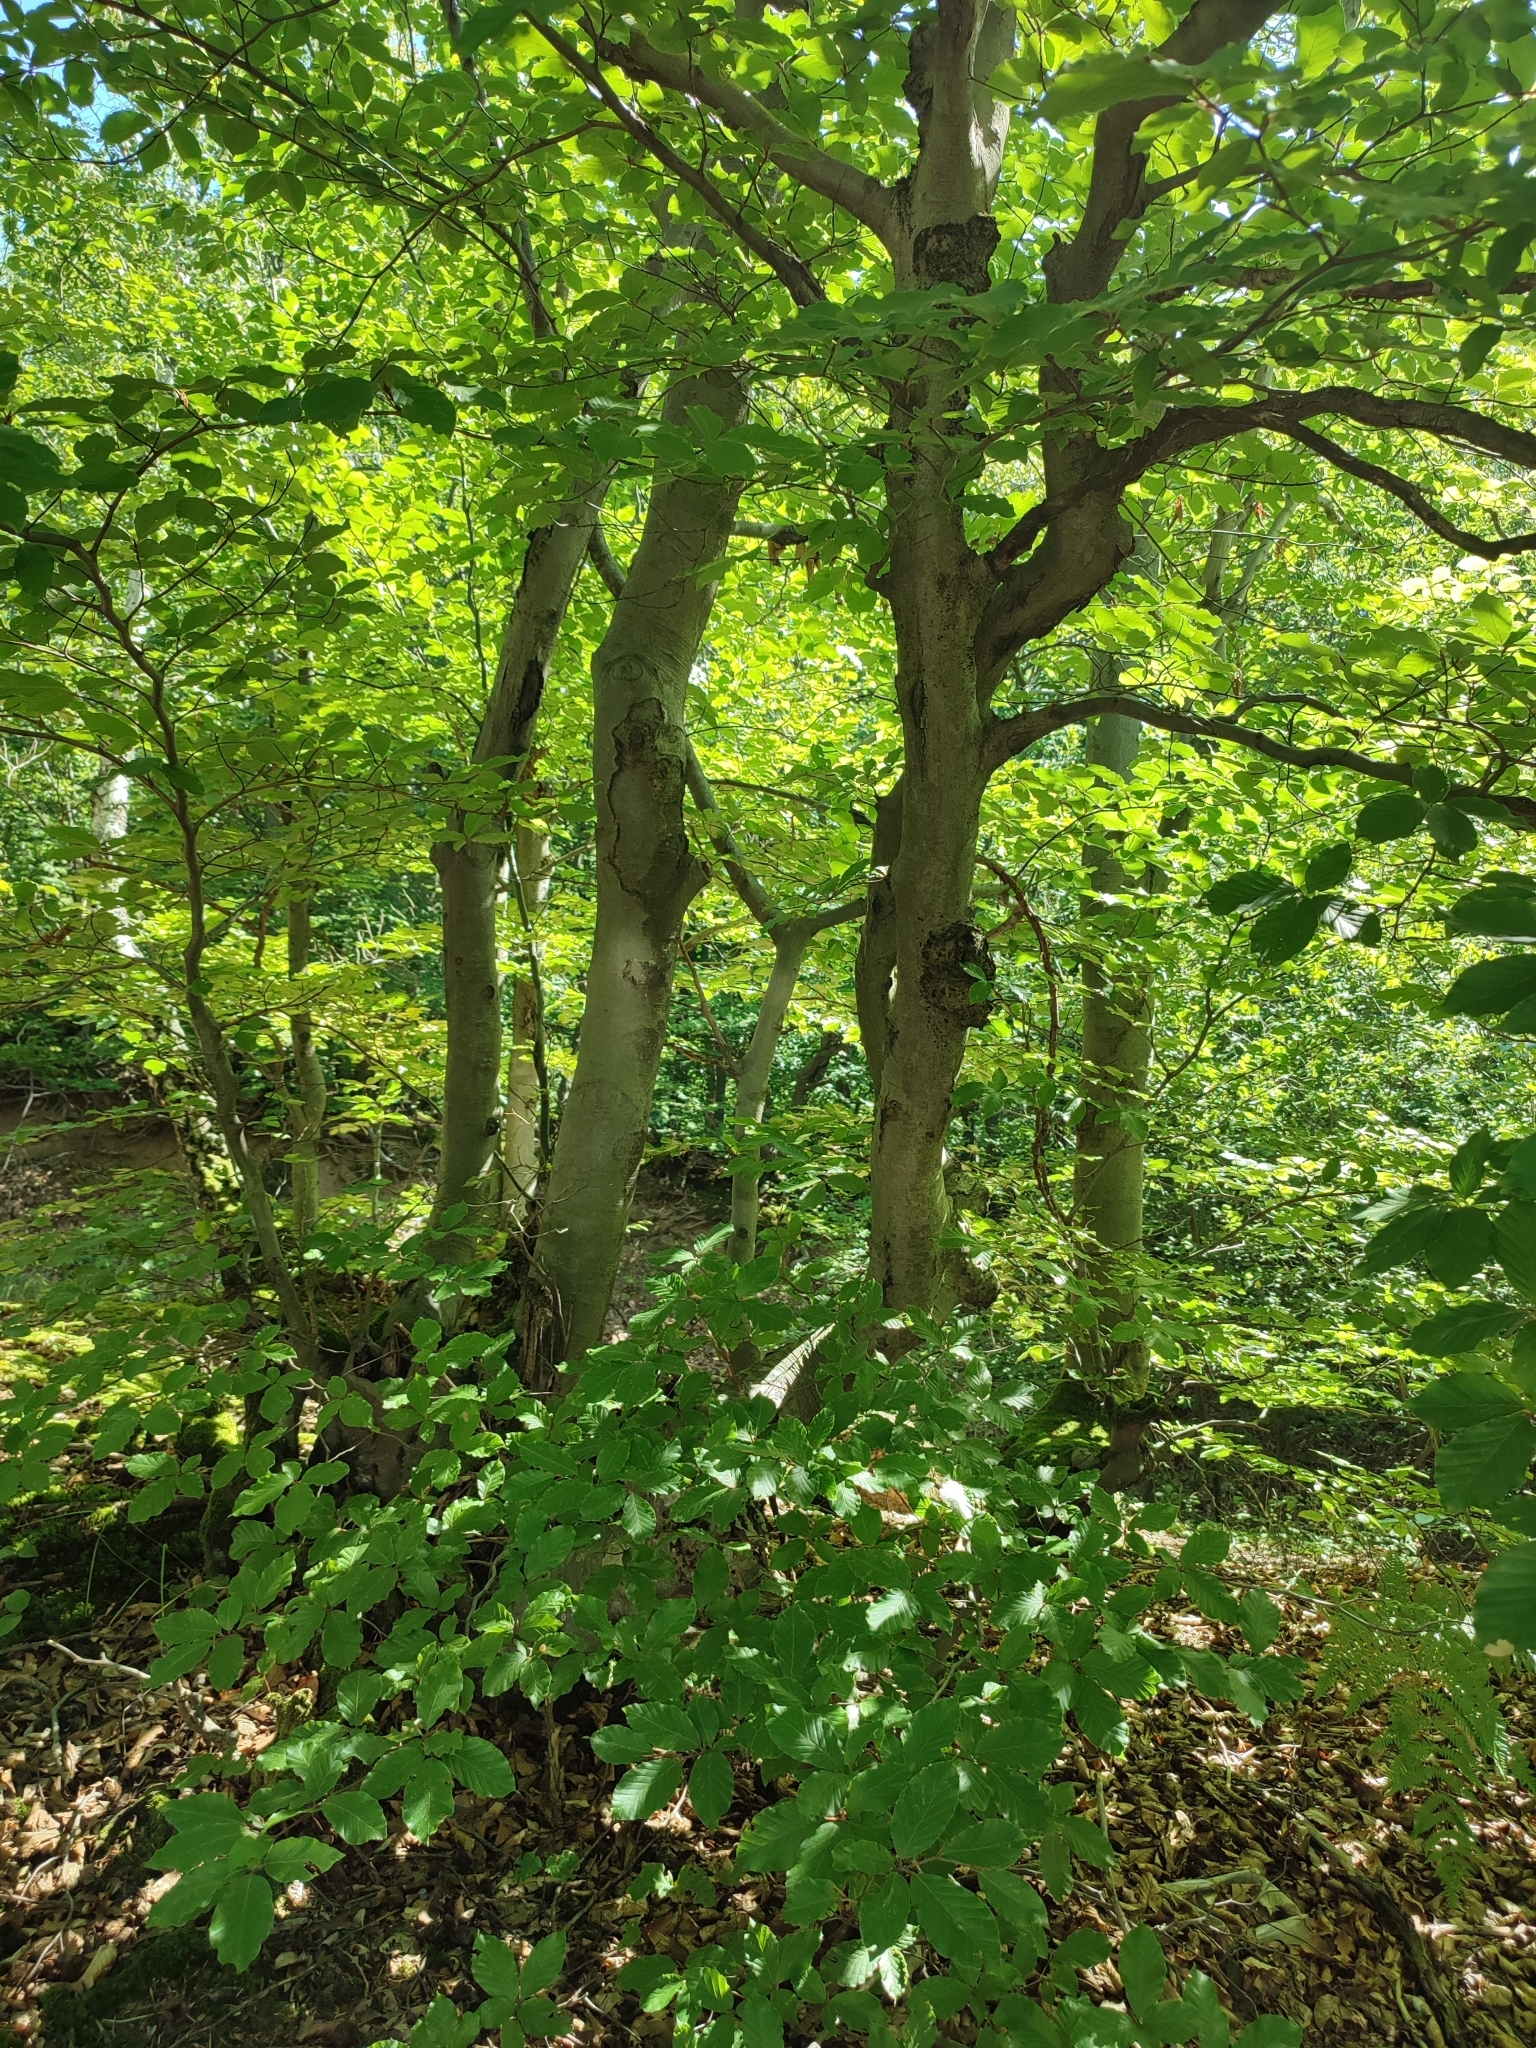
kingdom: Plantae
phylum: Tracheophyta
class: Magnoliopsida
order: Fagales
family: Fagaceae
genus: Fagus
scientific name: Fagus sylvatica
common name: Beech
